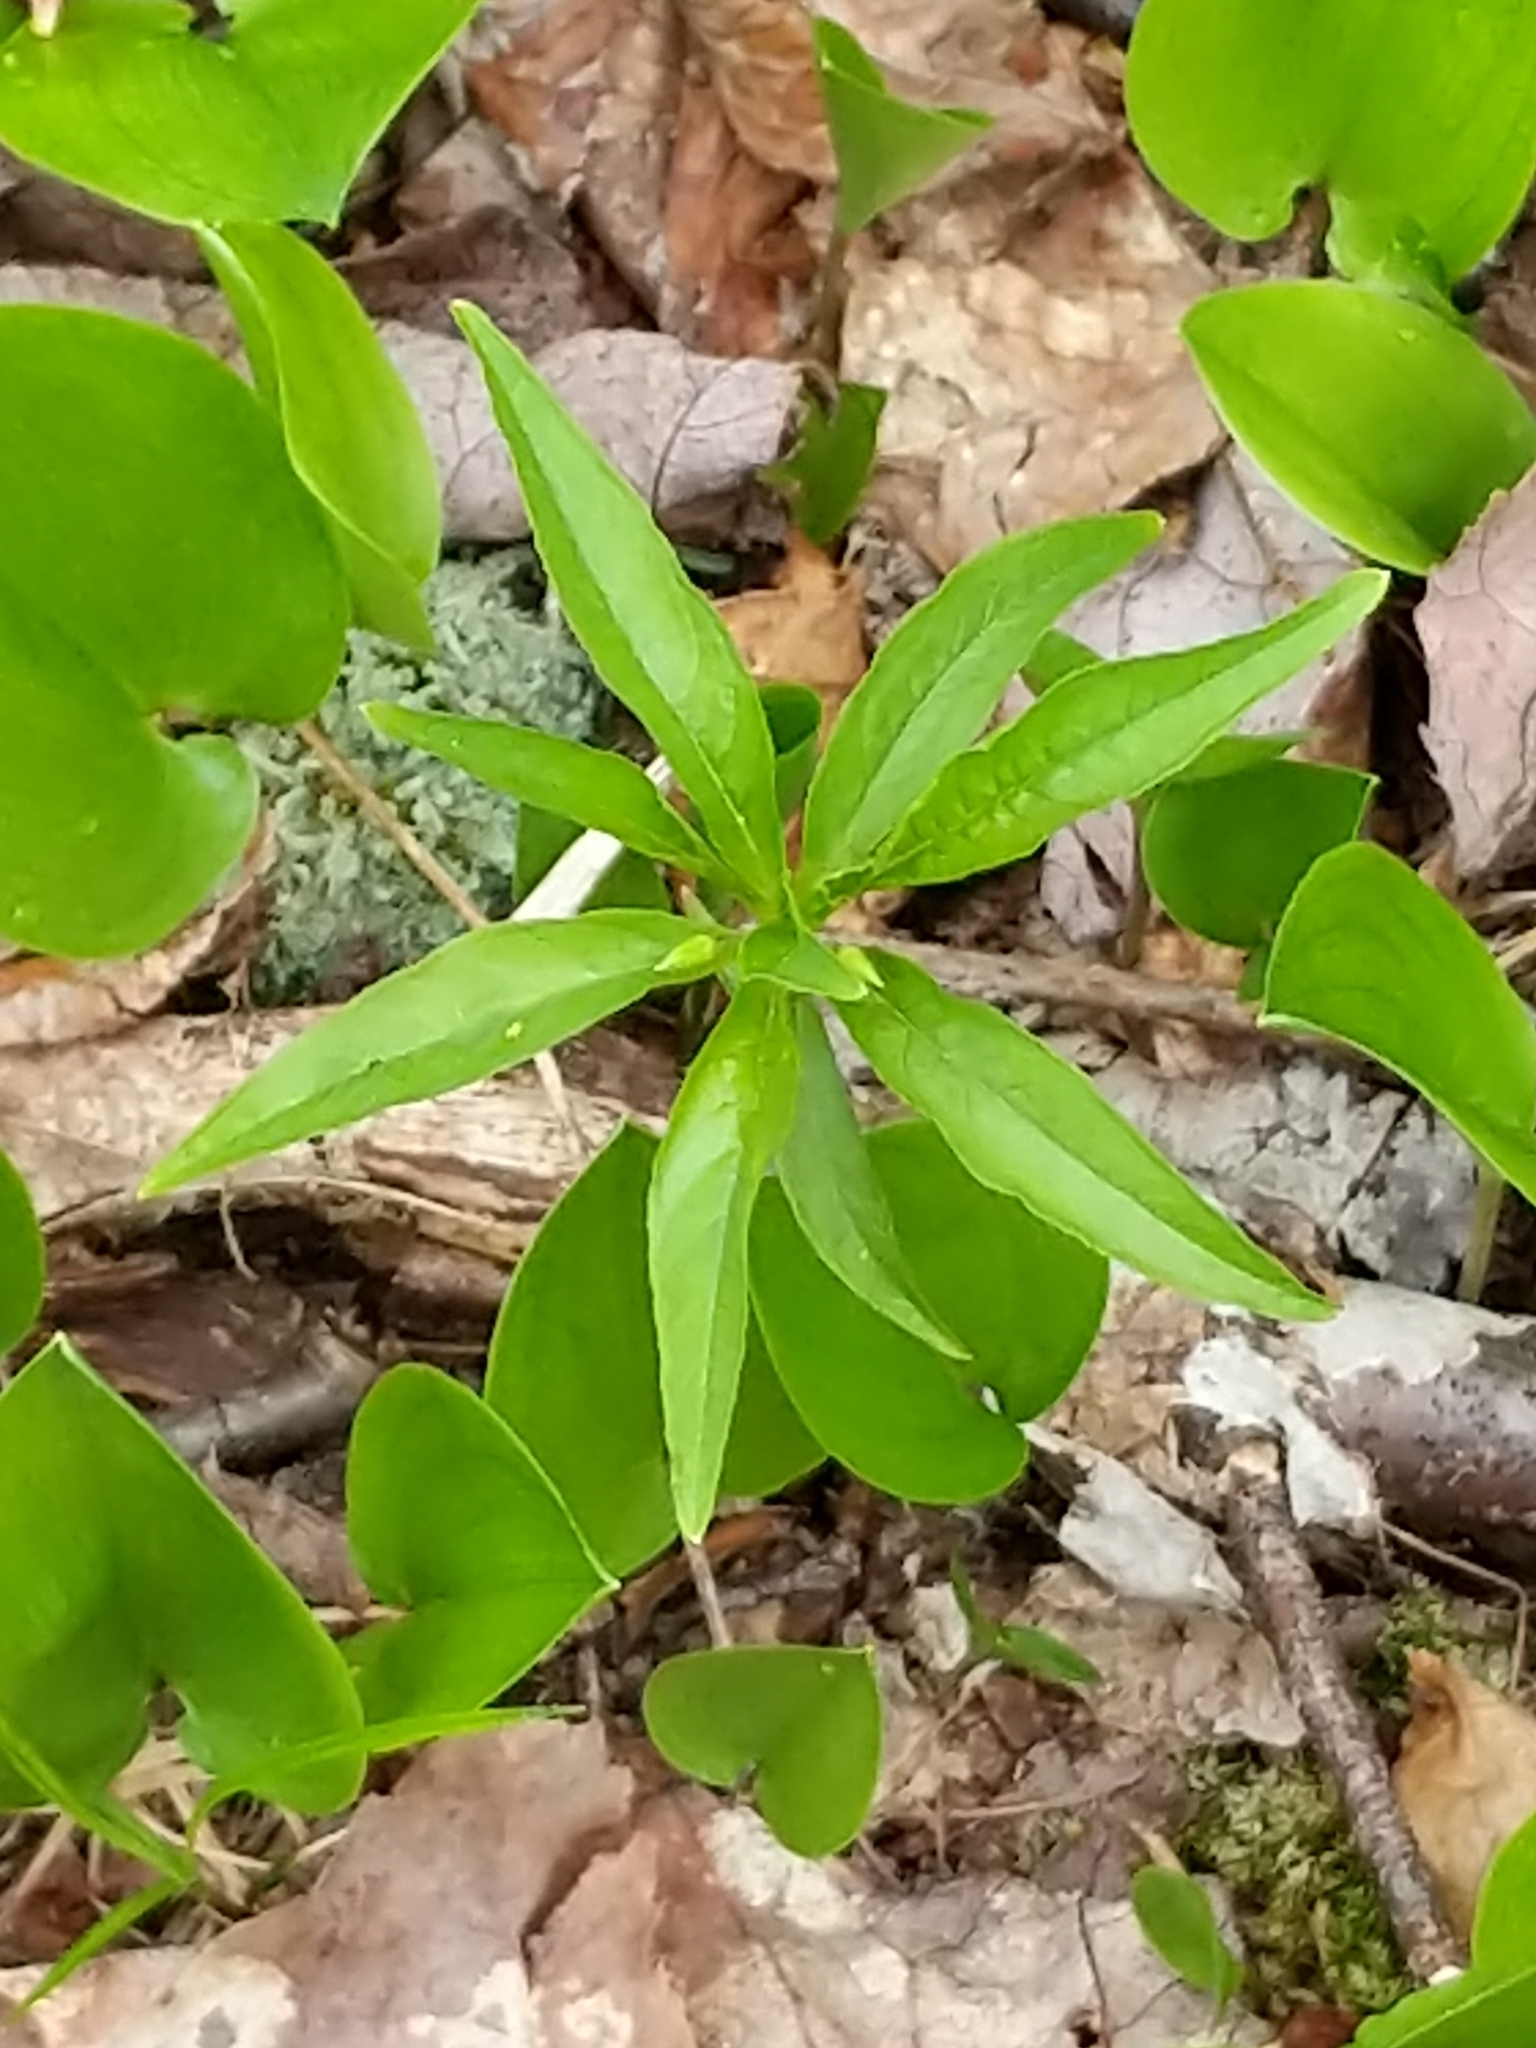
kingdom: Plantae
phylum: Tracheophyta
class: Magnoliopsida
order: Ericales
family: Primulaceae
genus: Lysimachia
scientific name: Lysimachia borealis
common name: American starflower
